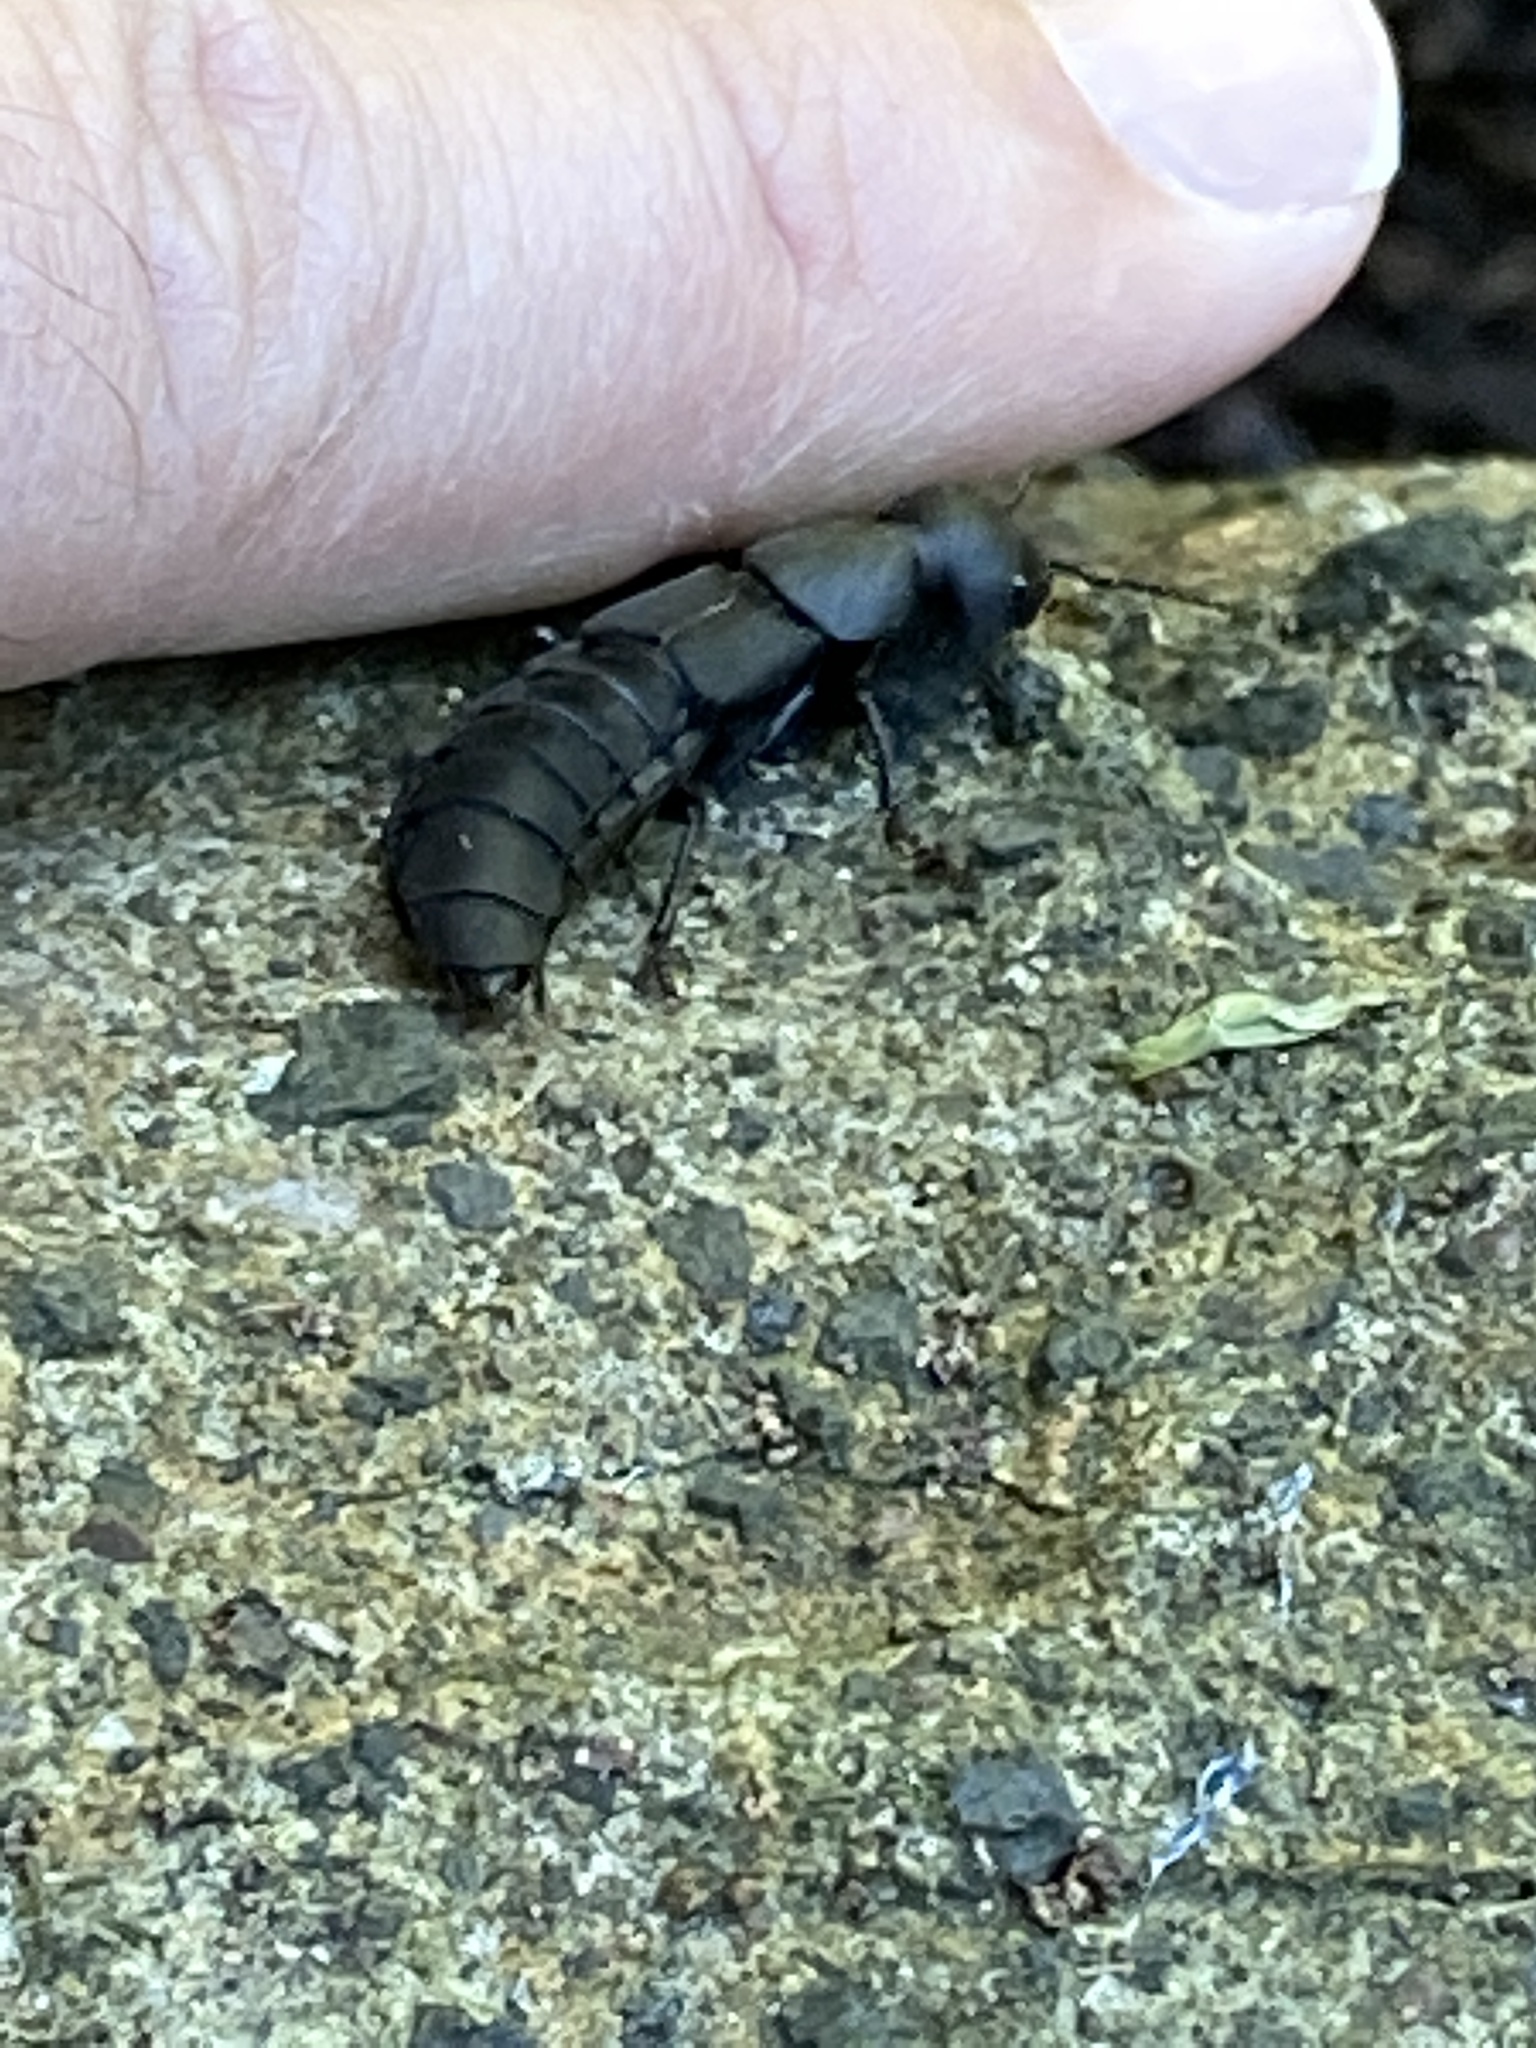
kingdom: Animalia
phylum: Arthropoda
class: Insecta
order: Coleoptera
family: Staphylinidae
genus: Ocypus
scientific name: Ocypus olens
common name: Devil's coach-horse
